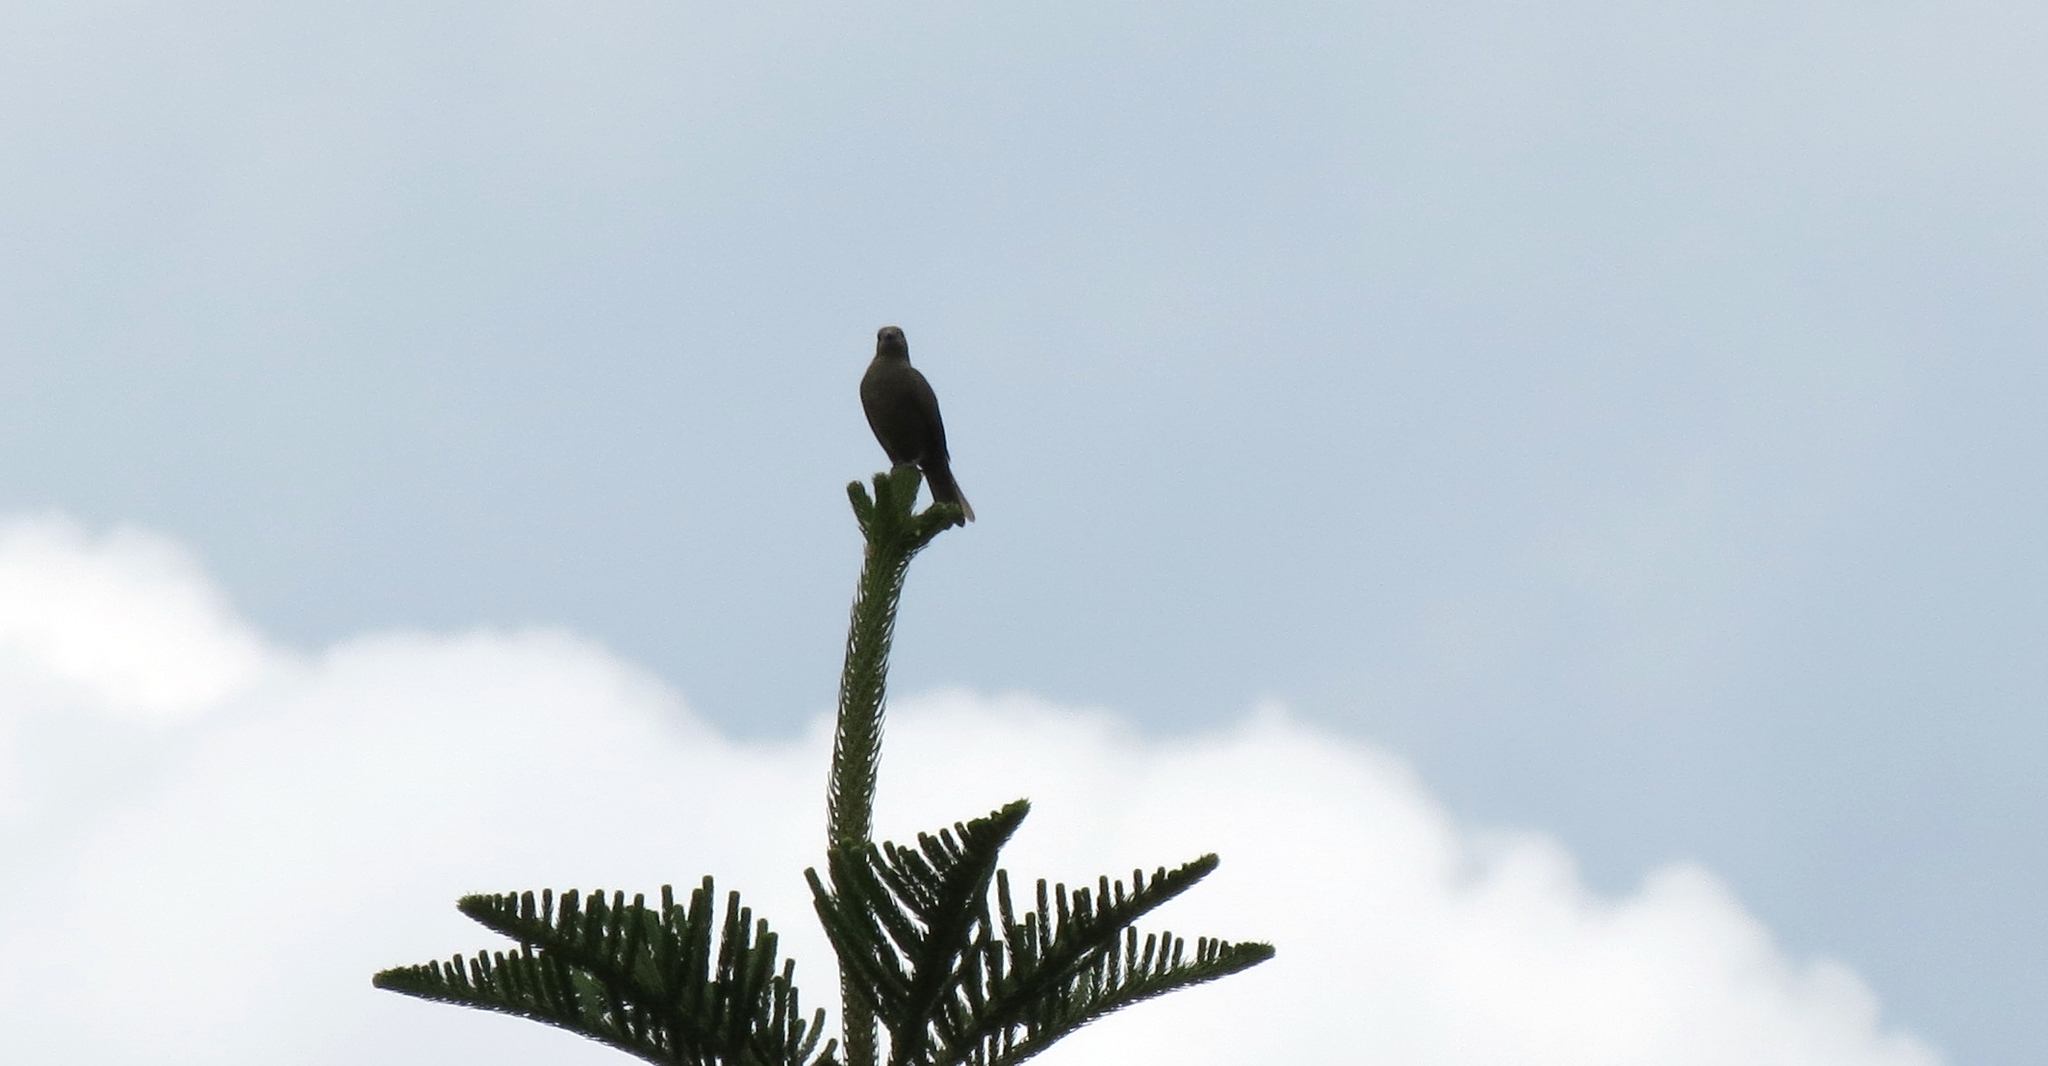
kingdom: Animalia
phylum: Chordata
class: Aves
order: Passeriformes
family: Thraupidae
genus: Thraupis
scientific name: Thraupis palmarum
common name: Palm tanager
